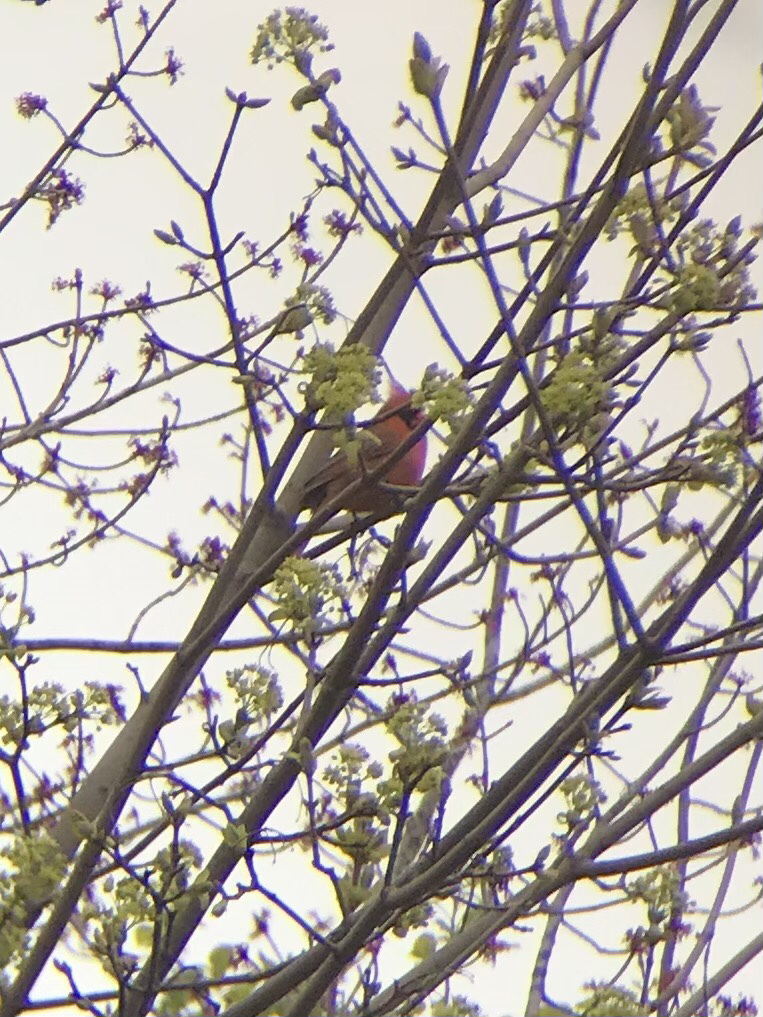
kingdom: Animalia
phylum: Chordata
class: Aves
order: Passeriformes
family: Cardinalidae
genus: Cardinalis
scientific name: Cardinalis cardinalis
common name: Northern cardinal
